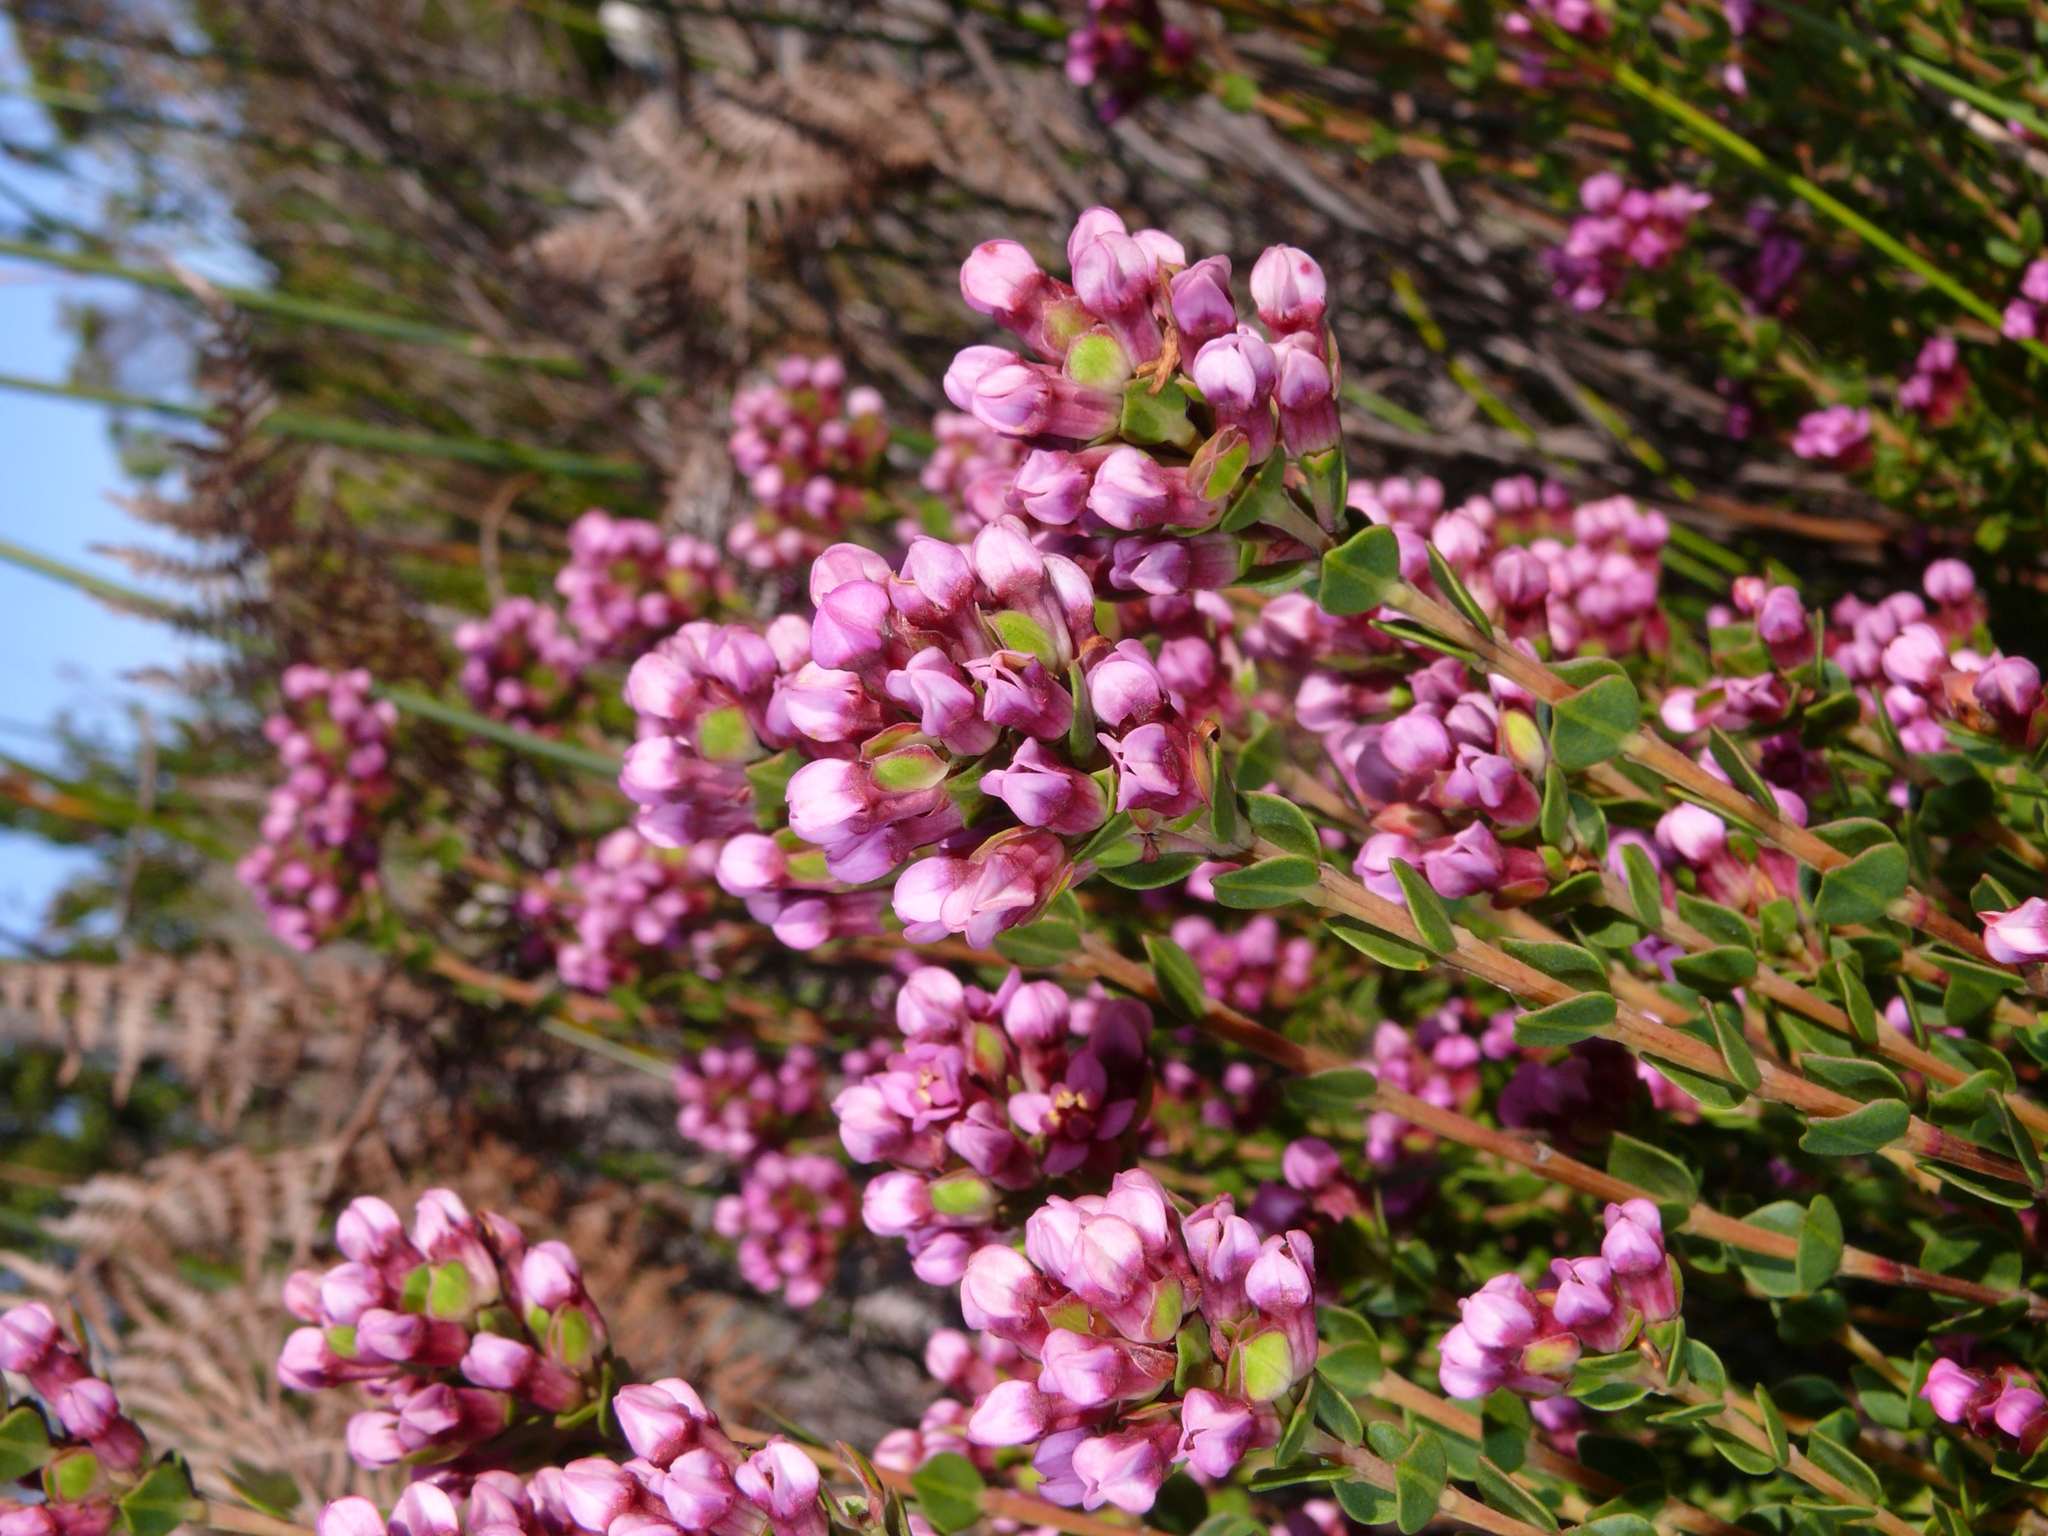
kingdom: Plantae
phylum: Tracheophyta
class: Magnoliopsida
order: Myrtales
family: Penaeaceae
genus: Brachysiphon
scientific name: Brachysiphon fucatus
